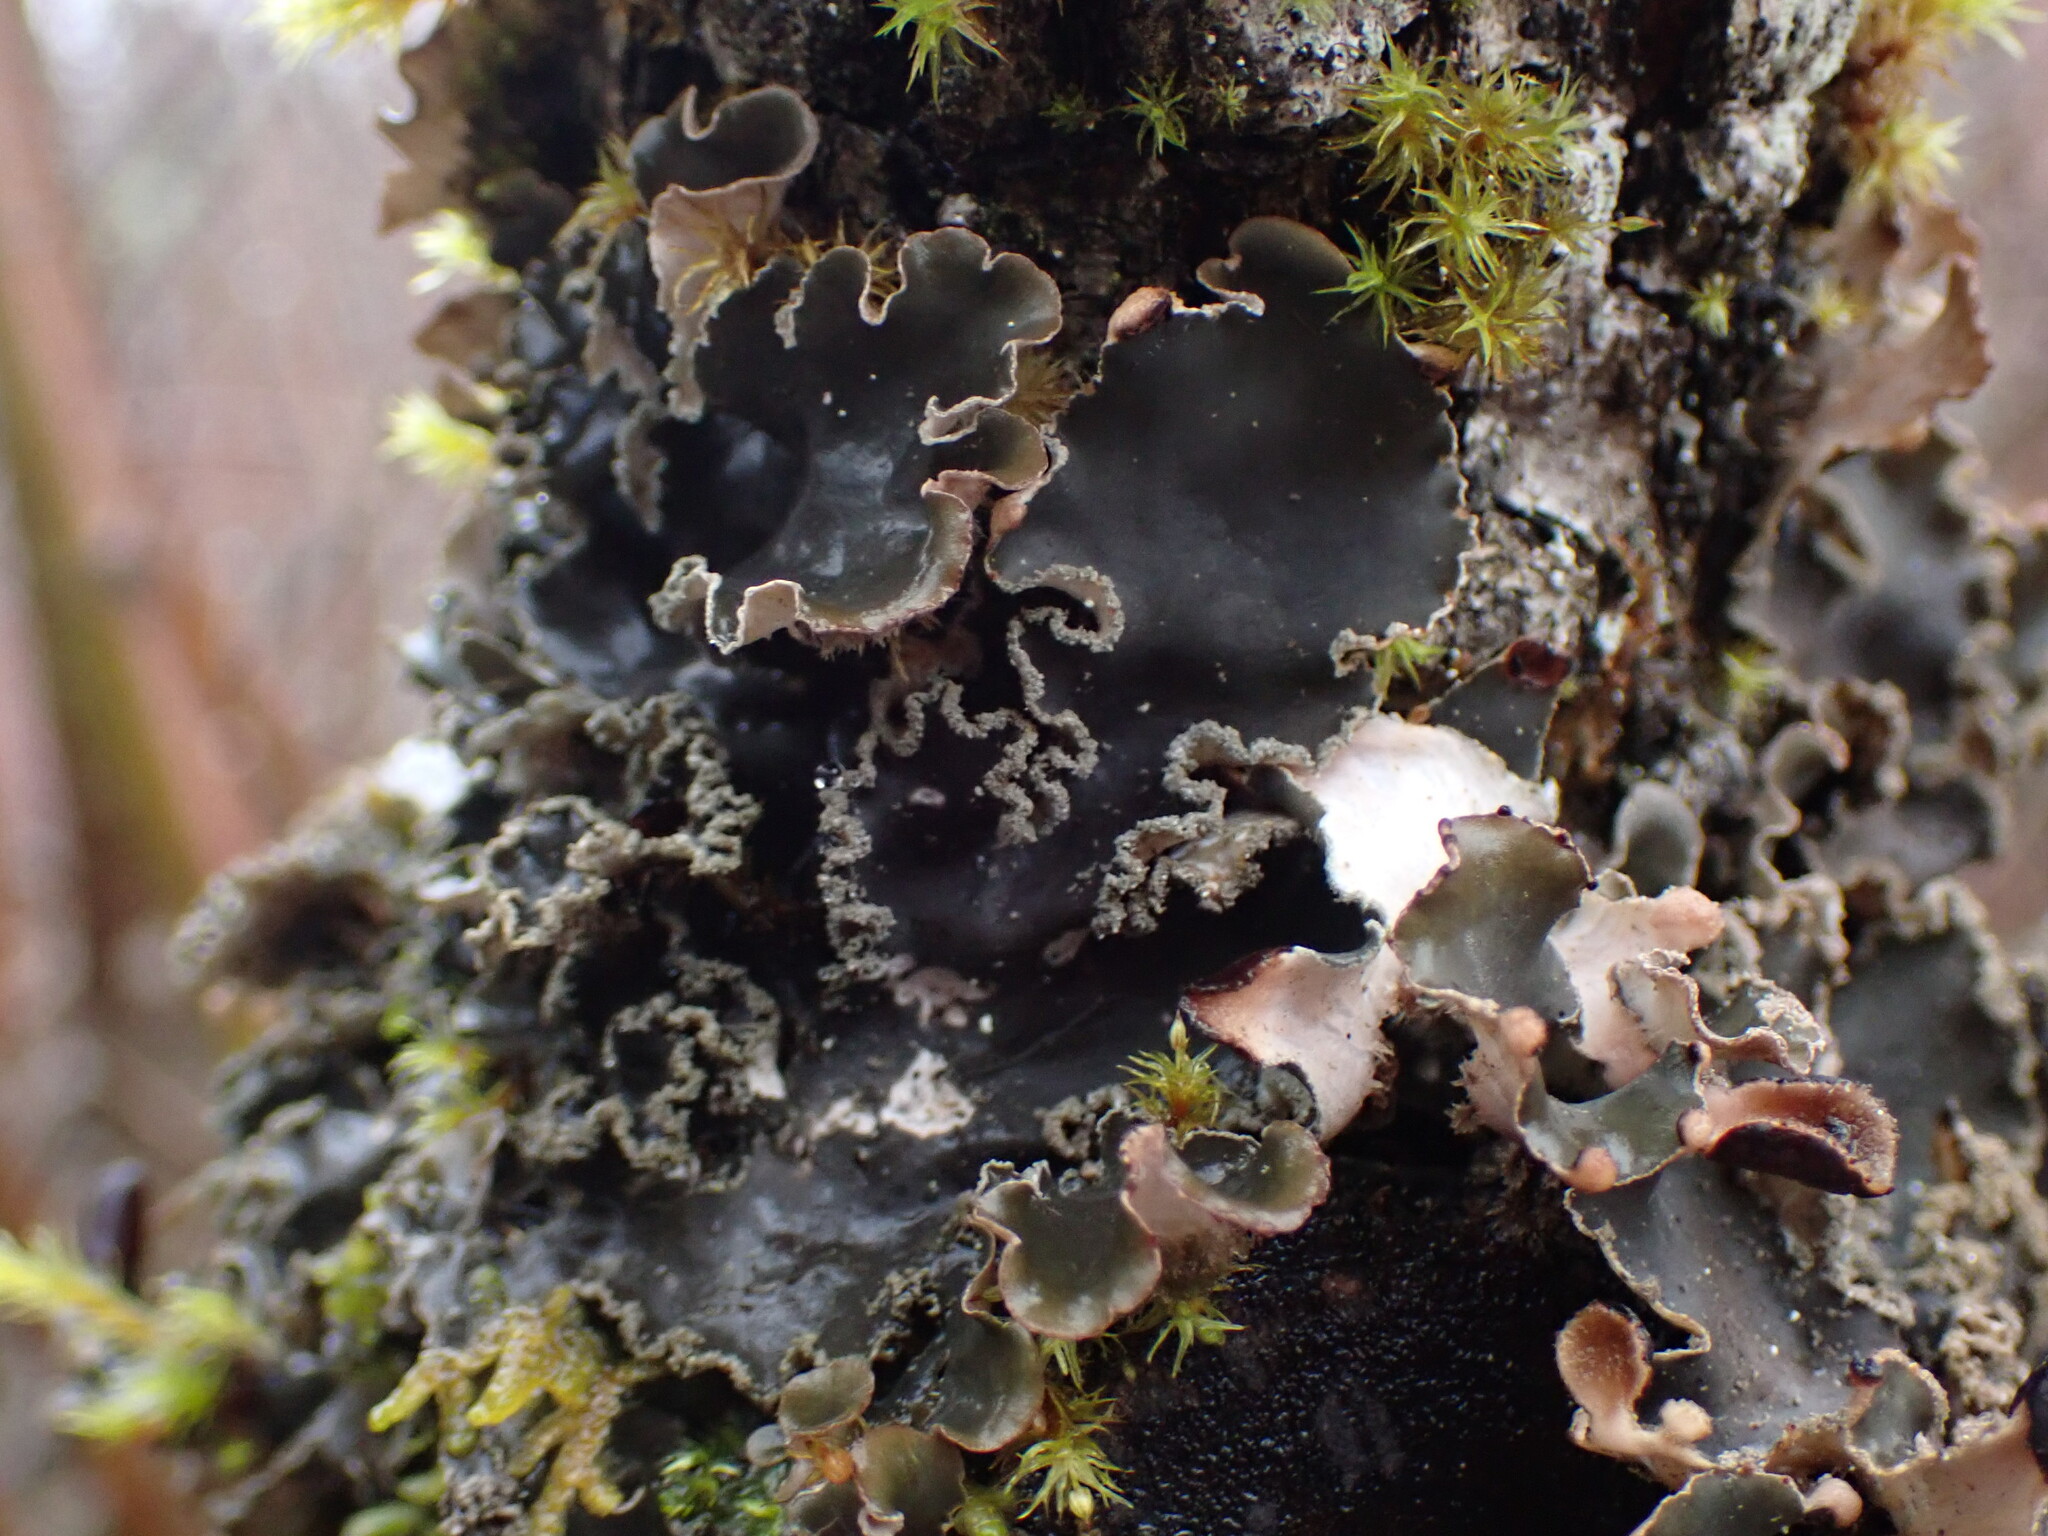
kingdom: Fungi
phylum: Ascomycota
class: Lecanoromycetes
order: Peltigerales
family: Peltigeraceae
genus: Peltigera
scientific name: Peltigera collina
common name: Gritty tree pelt lichen
